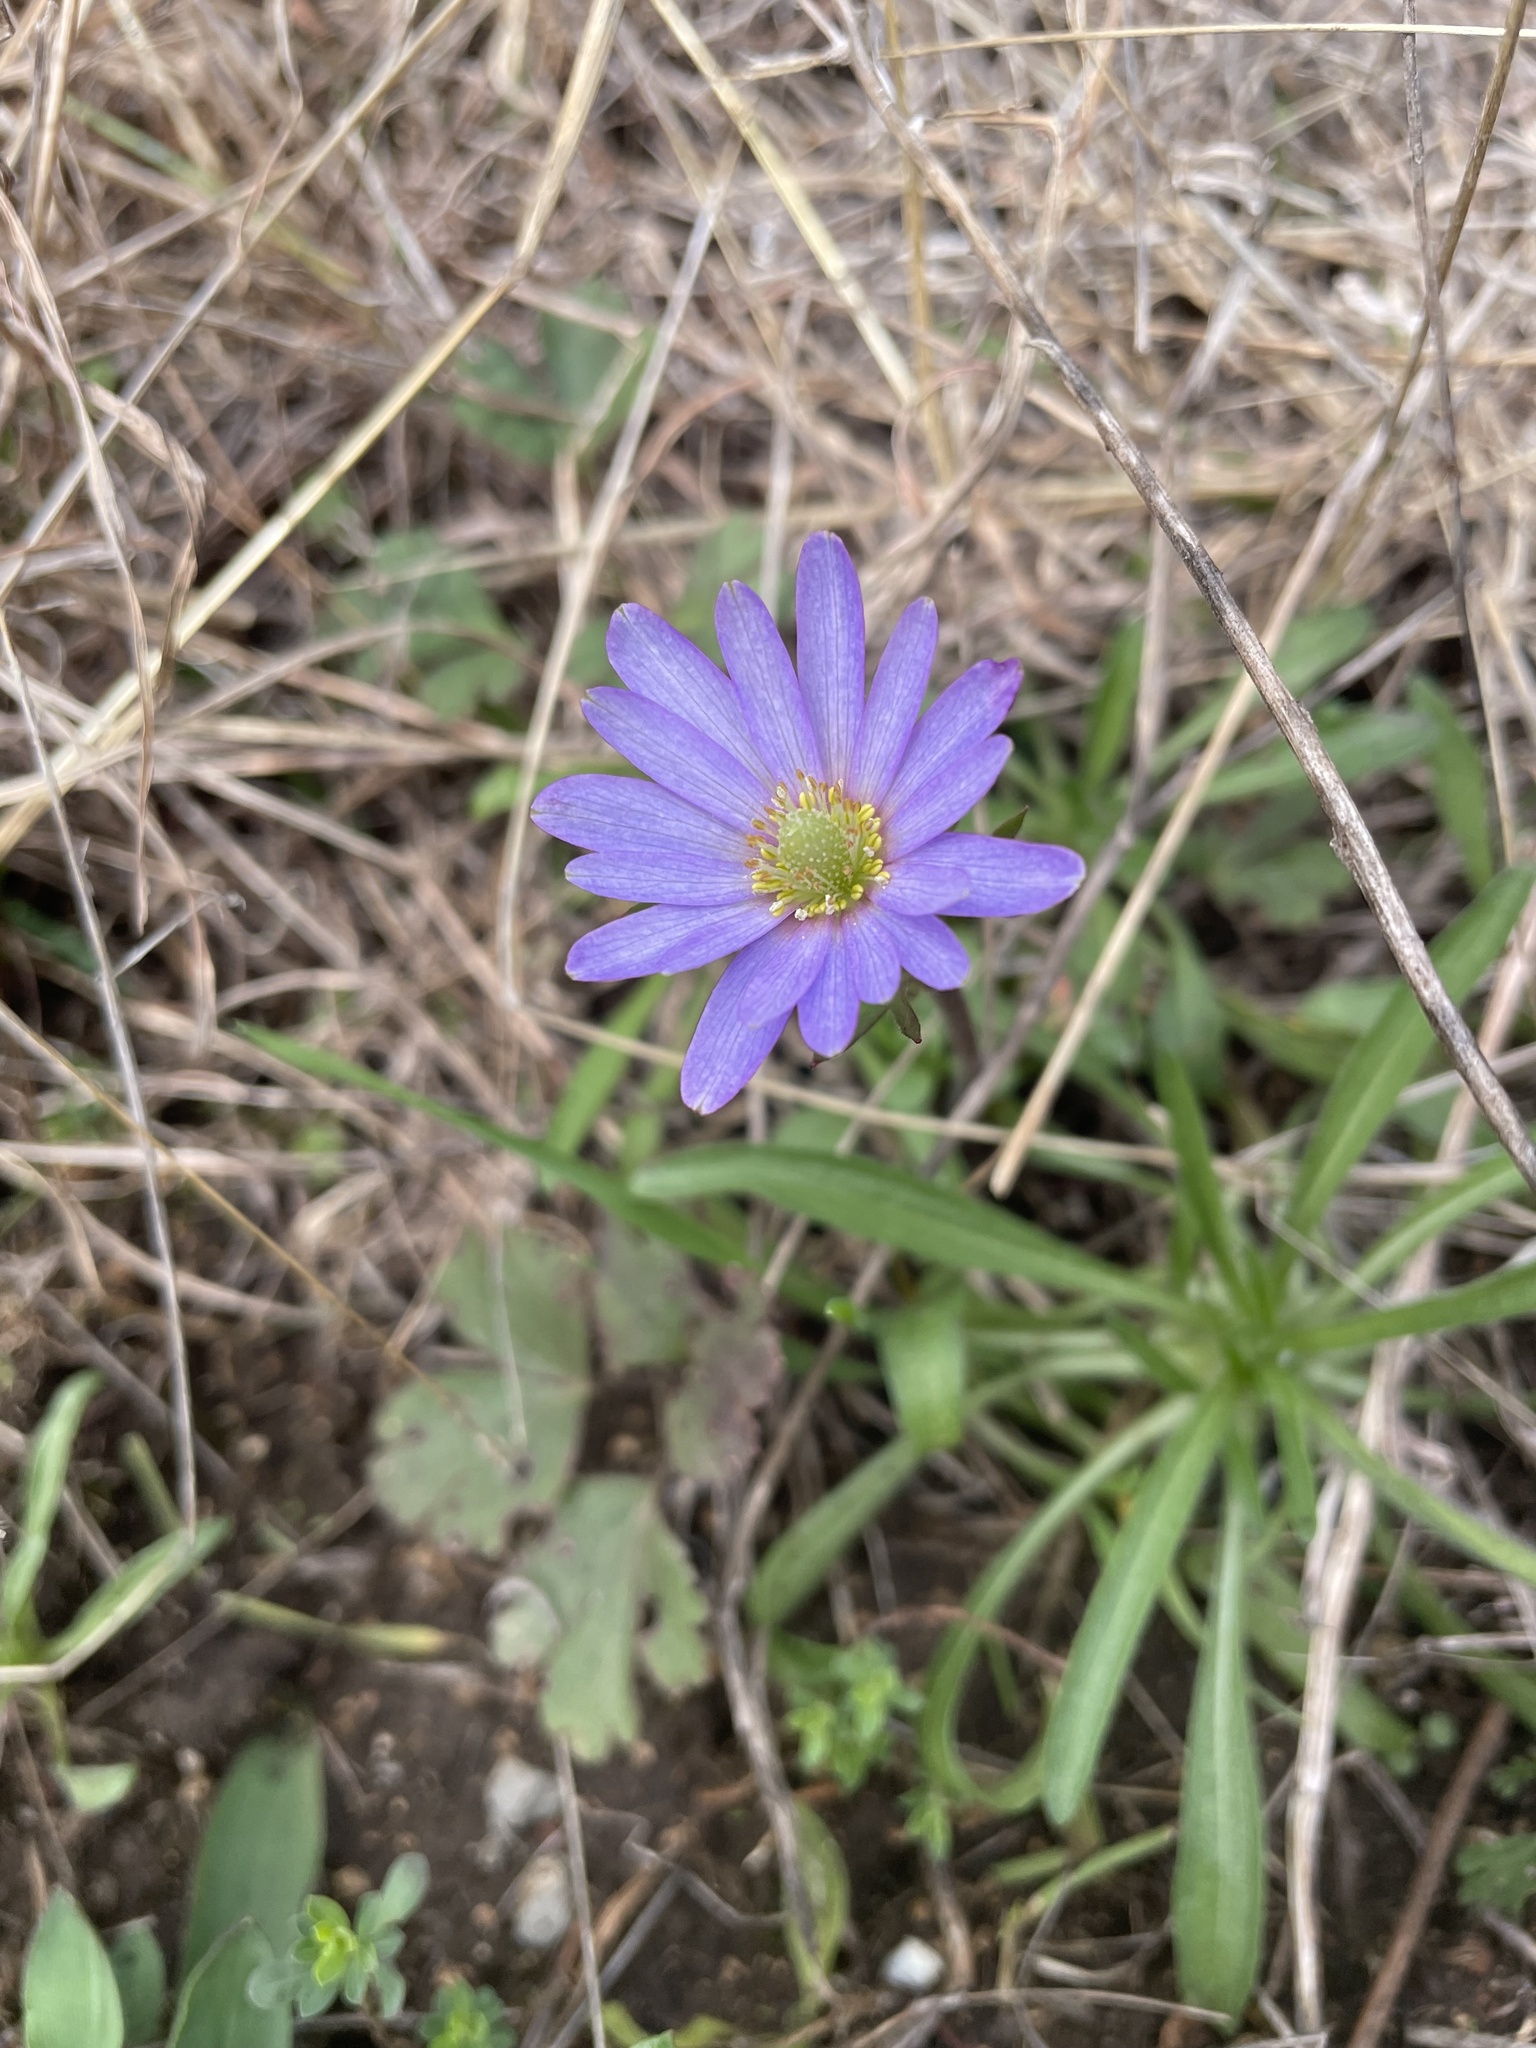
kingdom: Plantae
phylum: Tracheophyta
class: Magnoliopsida
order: Ranunculales
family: Ranunculaceae
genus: Anemone
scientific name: Anemone berlandieri
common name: Ten-petal anemone
